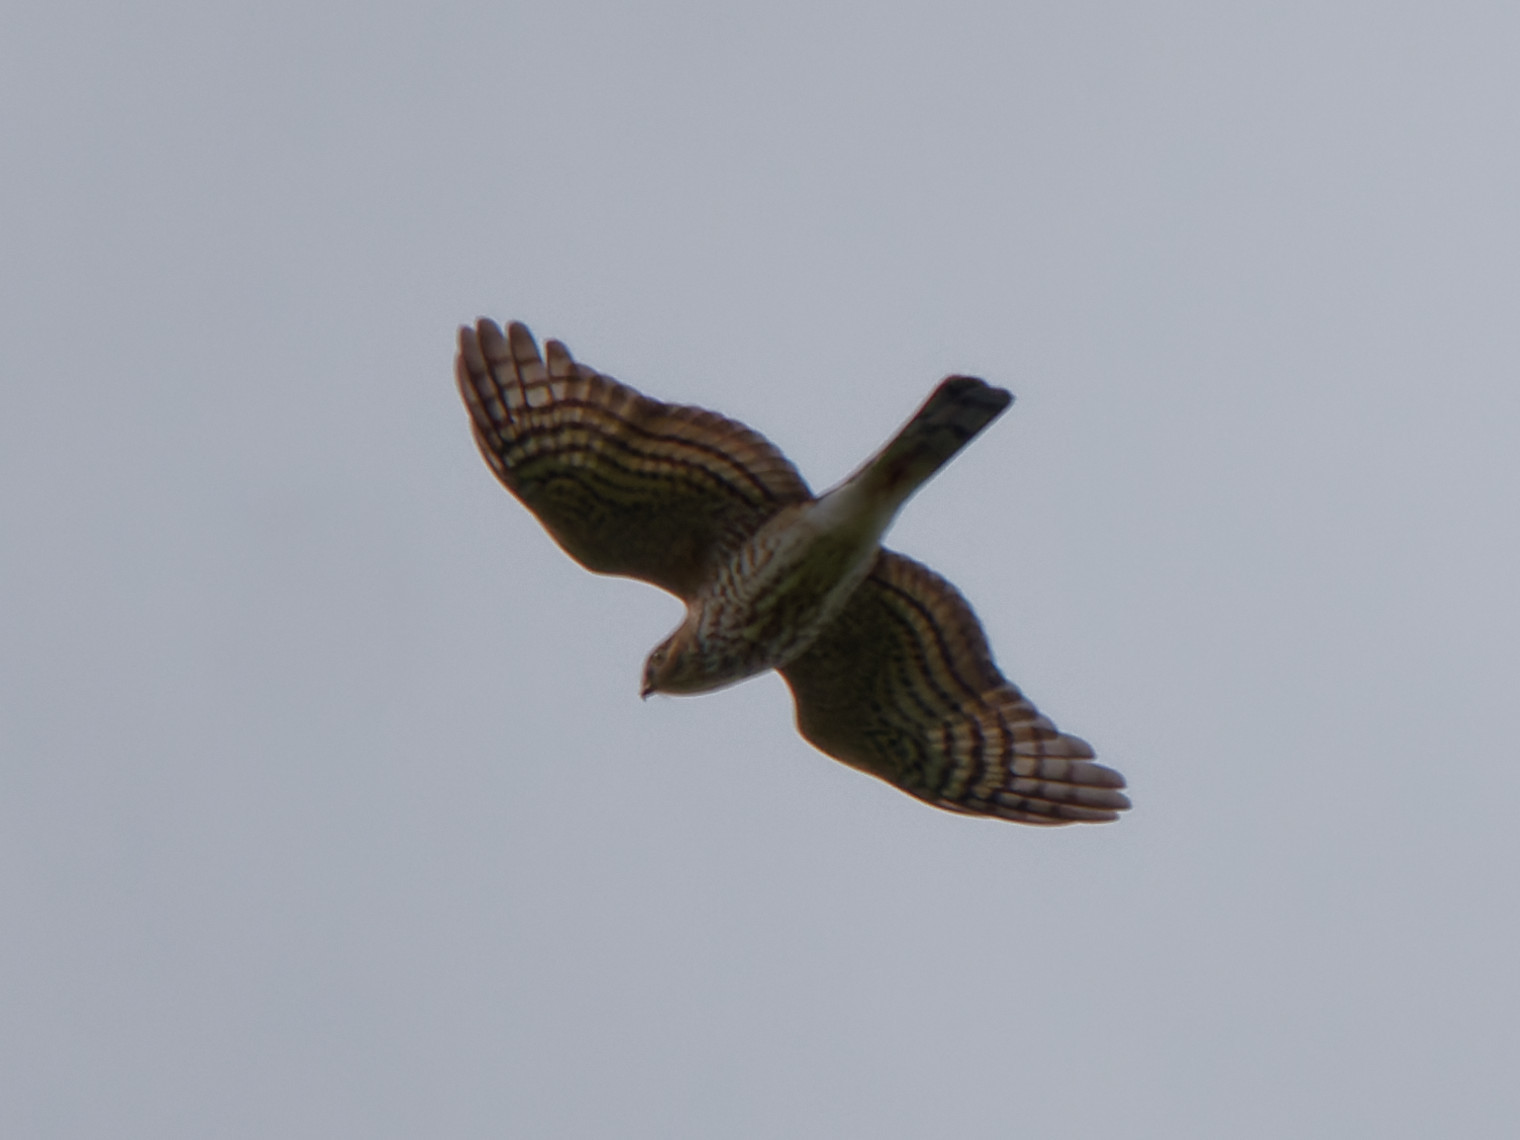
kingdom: Animalia
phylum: Chordata
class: Aves
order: Accipitriformes
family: Accipitridae
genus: Accipiter
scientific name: Accipiter striatus
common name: Sharp-shinned hawk
